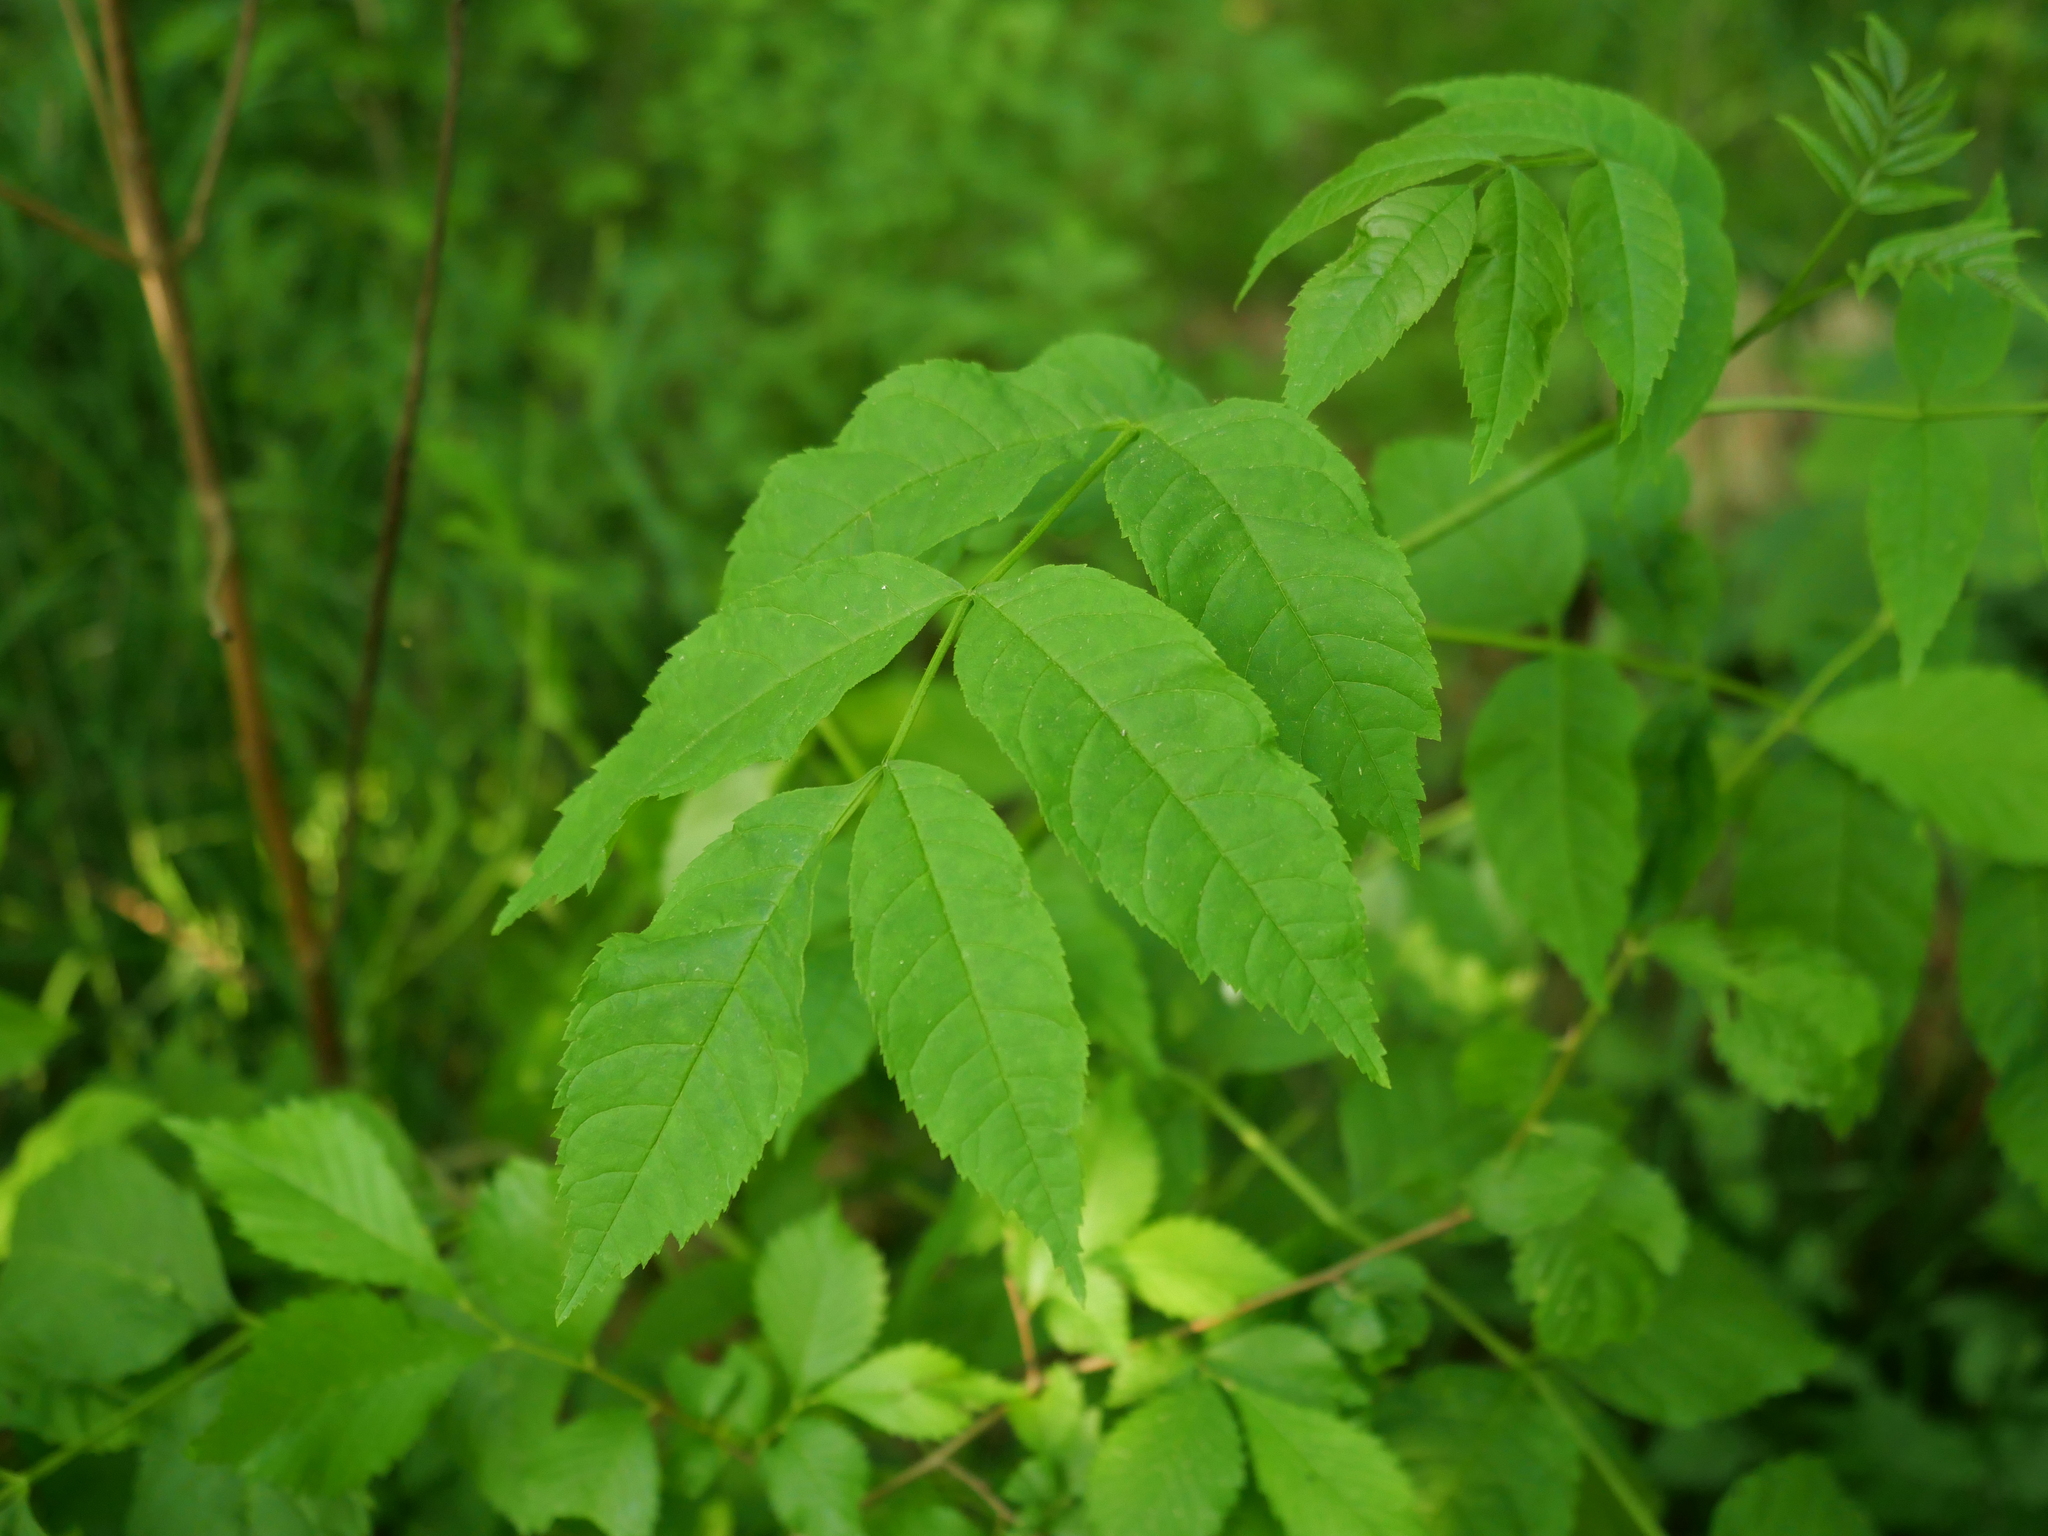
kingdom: Plantae
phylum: Tracheophyta
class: Magnoliopsida
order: Lamiales
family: Oleaceae
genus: Fraxinus
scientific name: Fraxinus excelsior
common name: European ash
